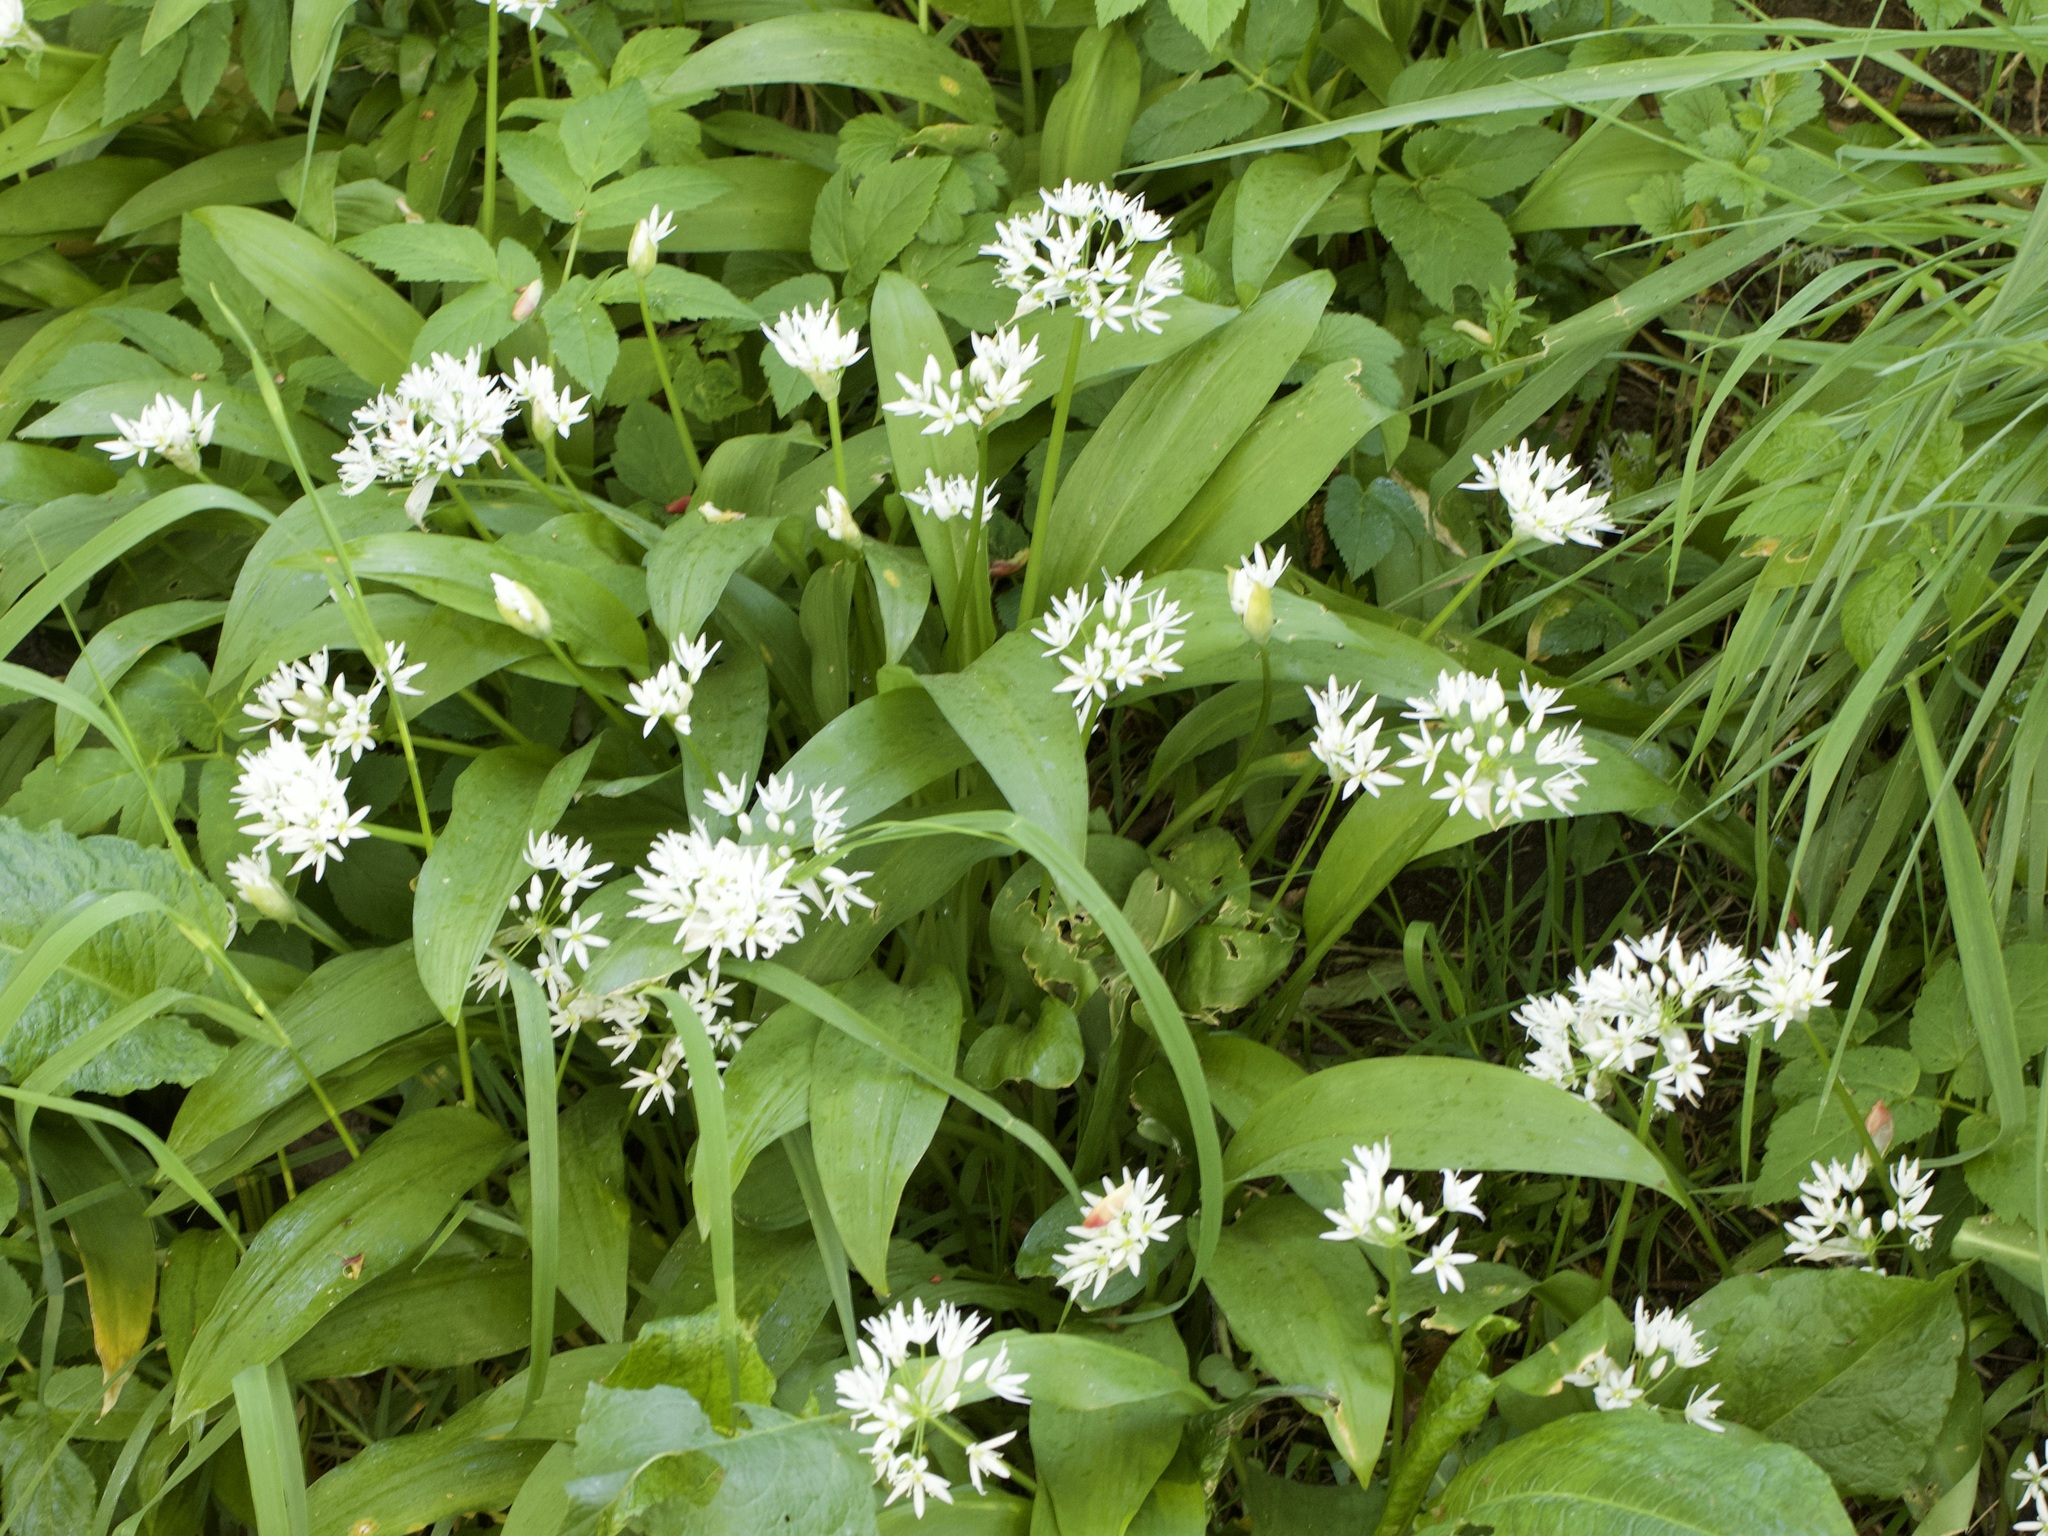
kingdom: Plantae
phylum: Tracheophyta
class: Liliopsida
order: Asparagales
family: Amaryllidaceae
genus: Allium
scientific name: Allium ursinum
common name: Ramsons
